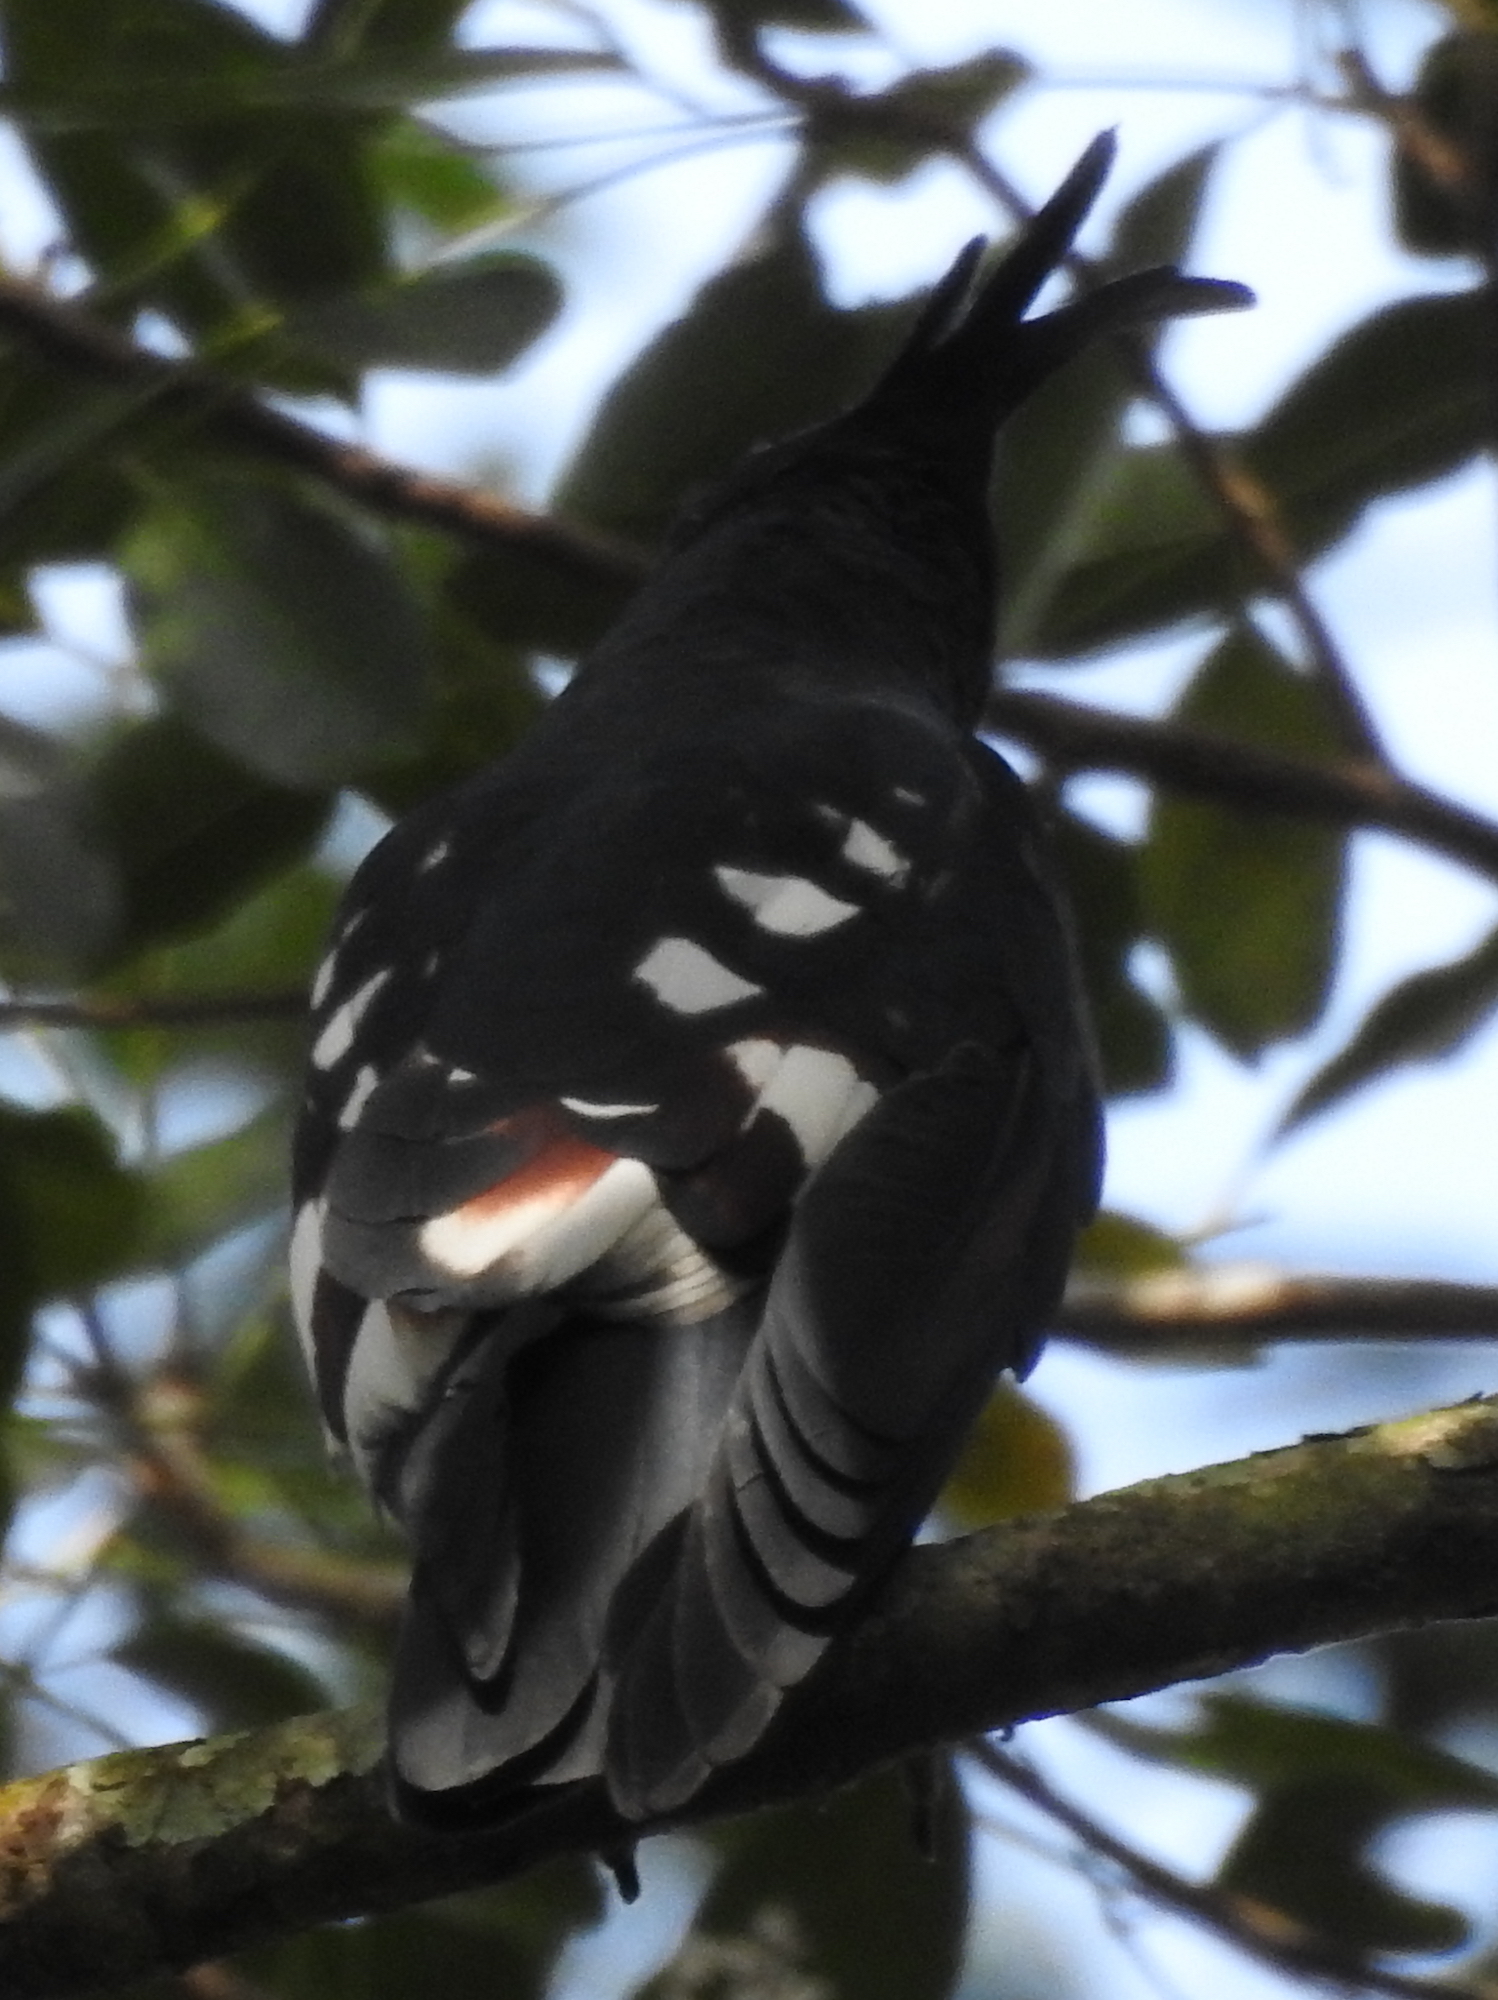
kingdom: Animalia
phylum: Chordata
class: Aves
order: Accipitriformes
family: Accipitridae
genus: Aviceda
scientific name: Aviceda leuphotes
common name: Black baza
